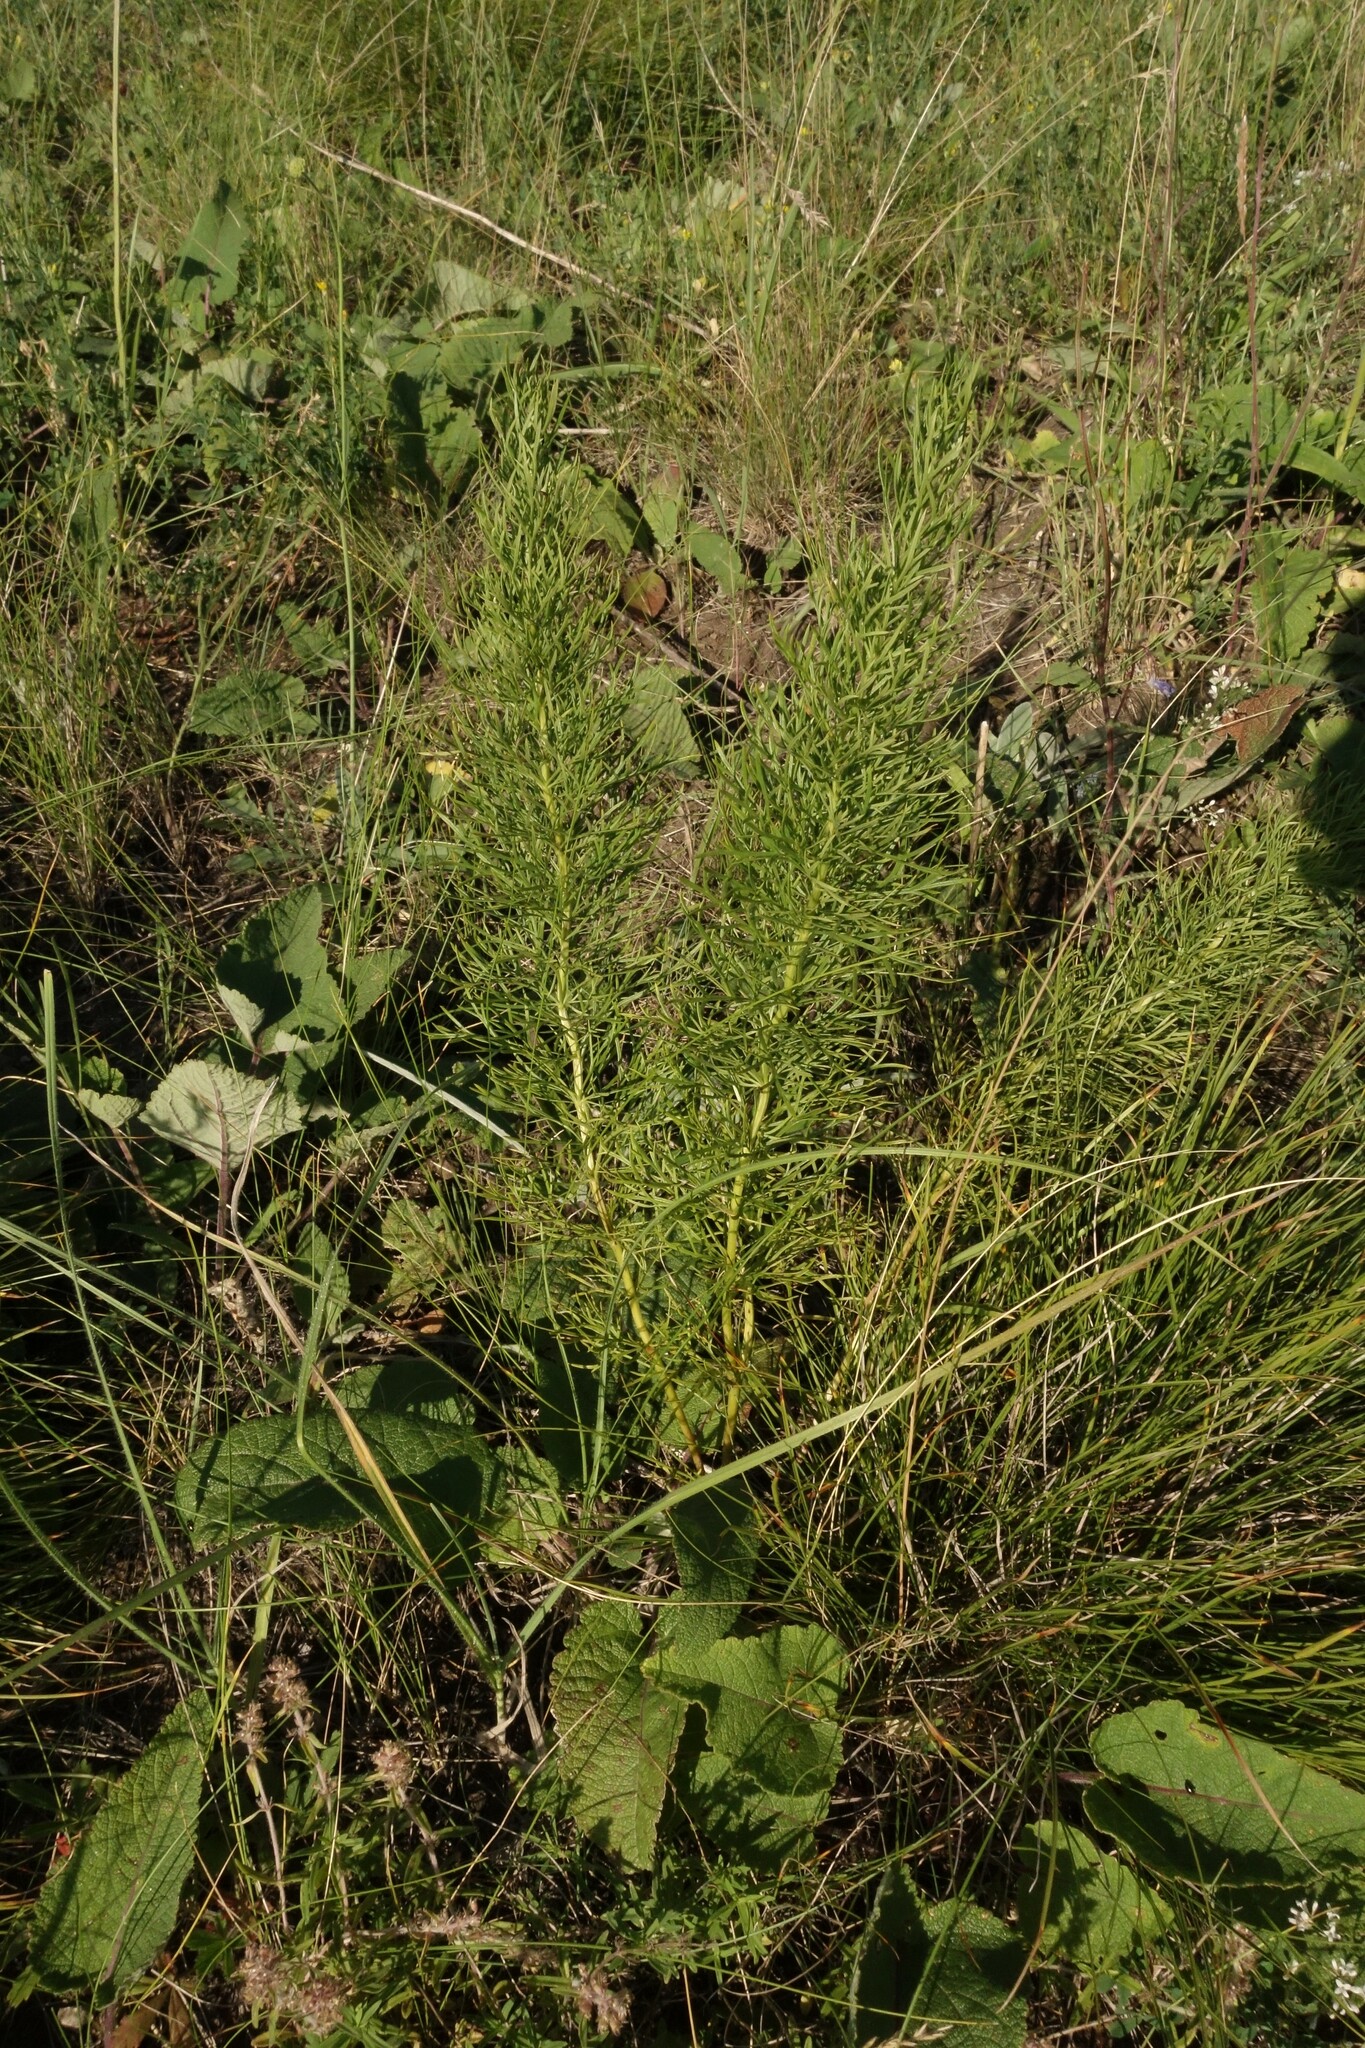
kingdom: Plantae
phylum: Tracheophyta
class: Magnoliopsida
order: Ranunculales
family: Ranunculaceae
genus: Adonis
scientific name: Adonis vernalis
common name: Yellow pheasants-eye
